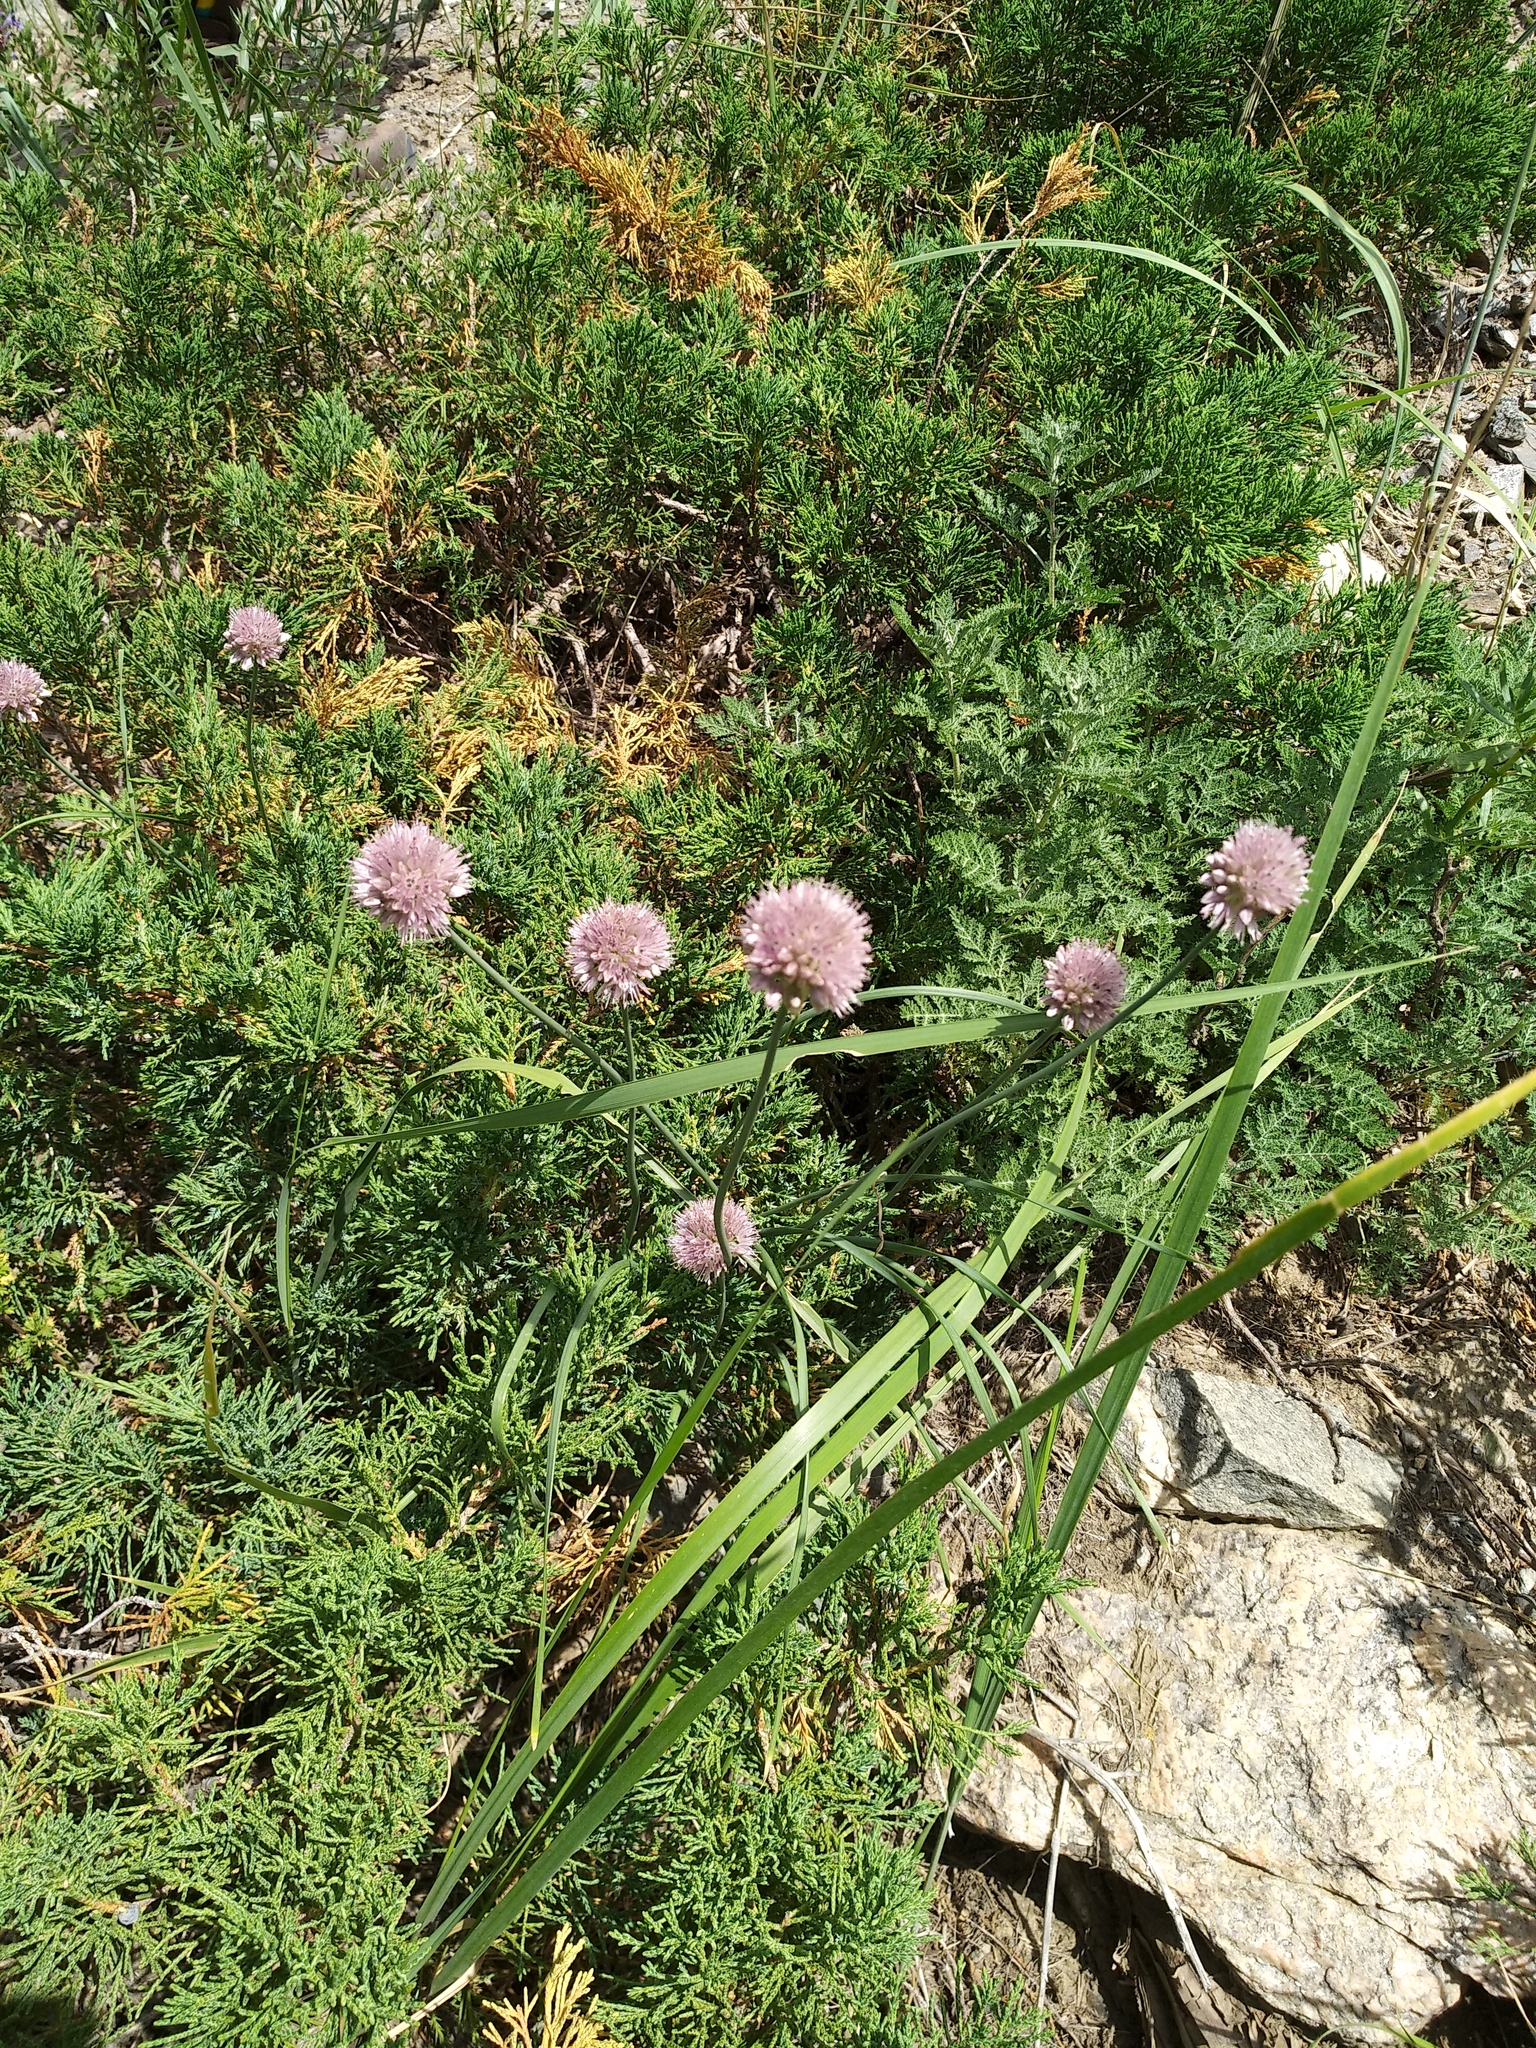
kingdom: Plantae
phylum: Tracheophyta
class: Liliopsida
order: Asparagales
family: Amaryllidaceae
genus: Allium
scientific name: Allium senescens
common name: German garlic
